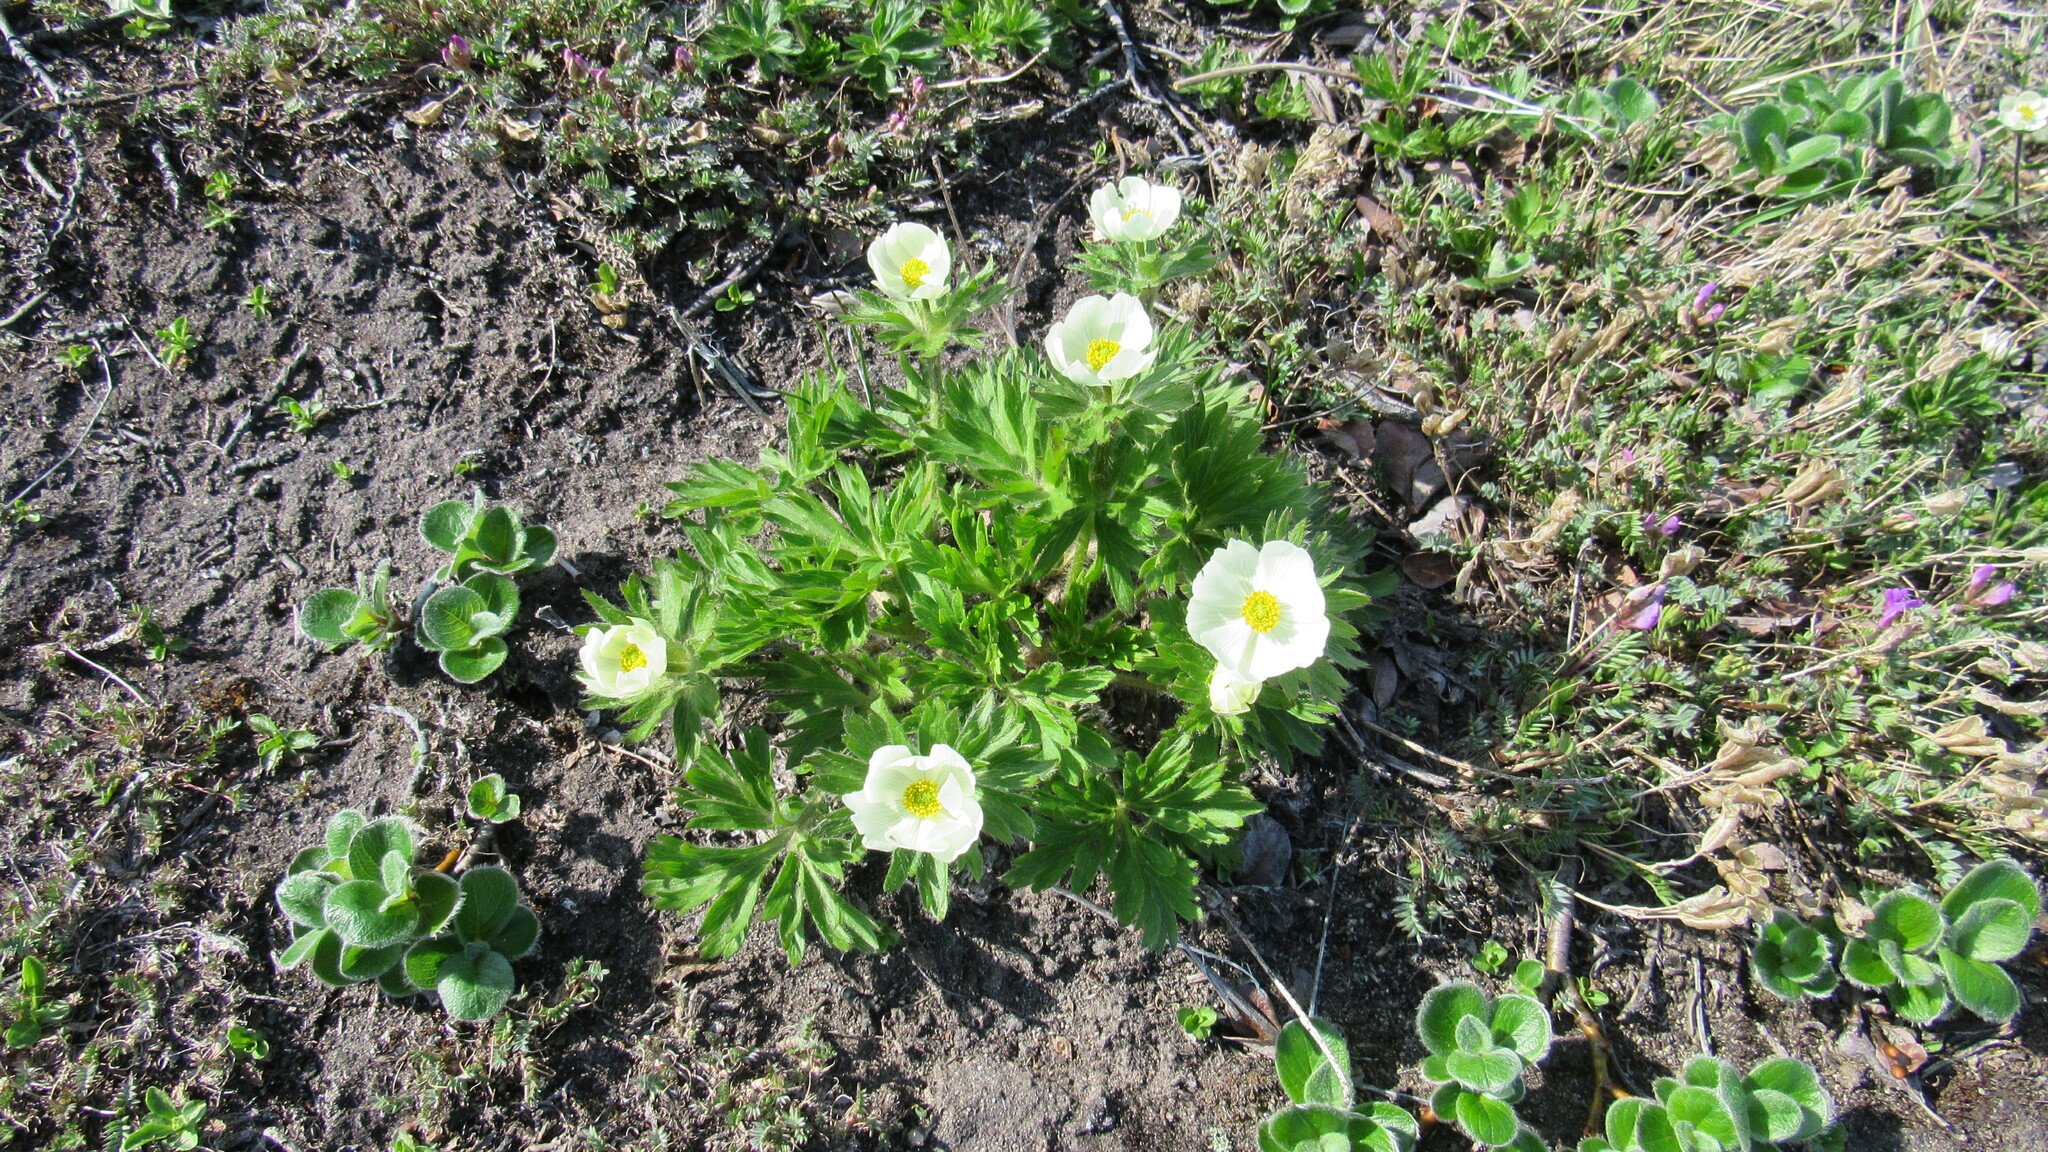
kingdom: Plantae
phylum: Tracheophyta
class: Magnoliopsida
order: Ranunculales
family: Ranunculaceae
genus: Anemonastrum
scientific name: Anemonastrum narcissiflorum
